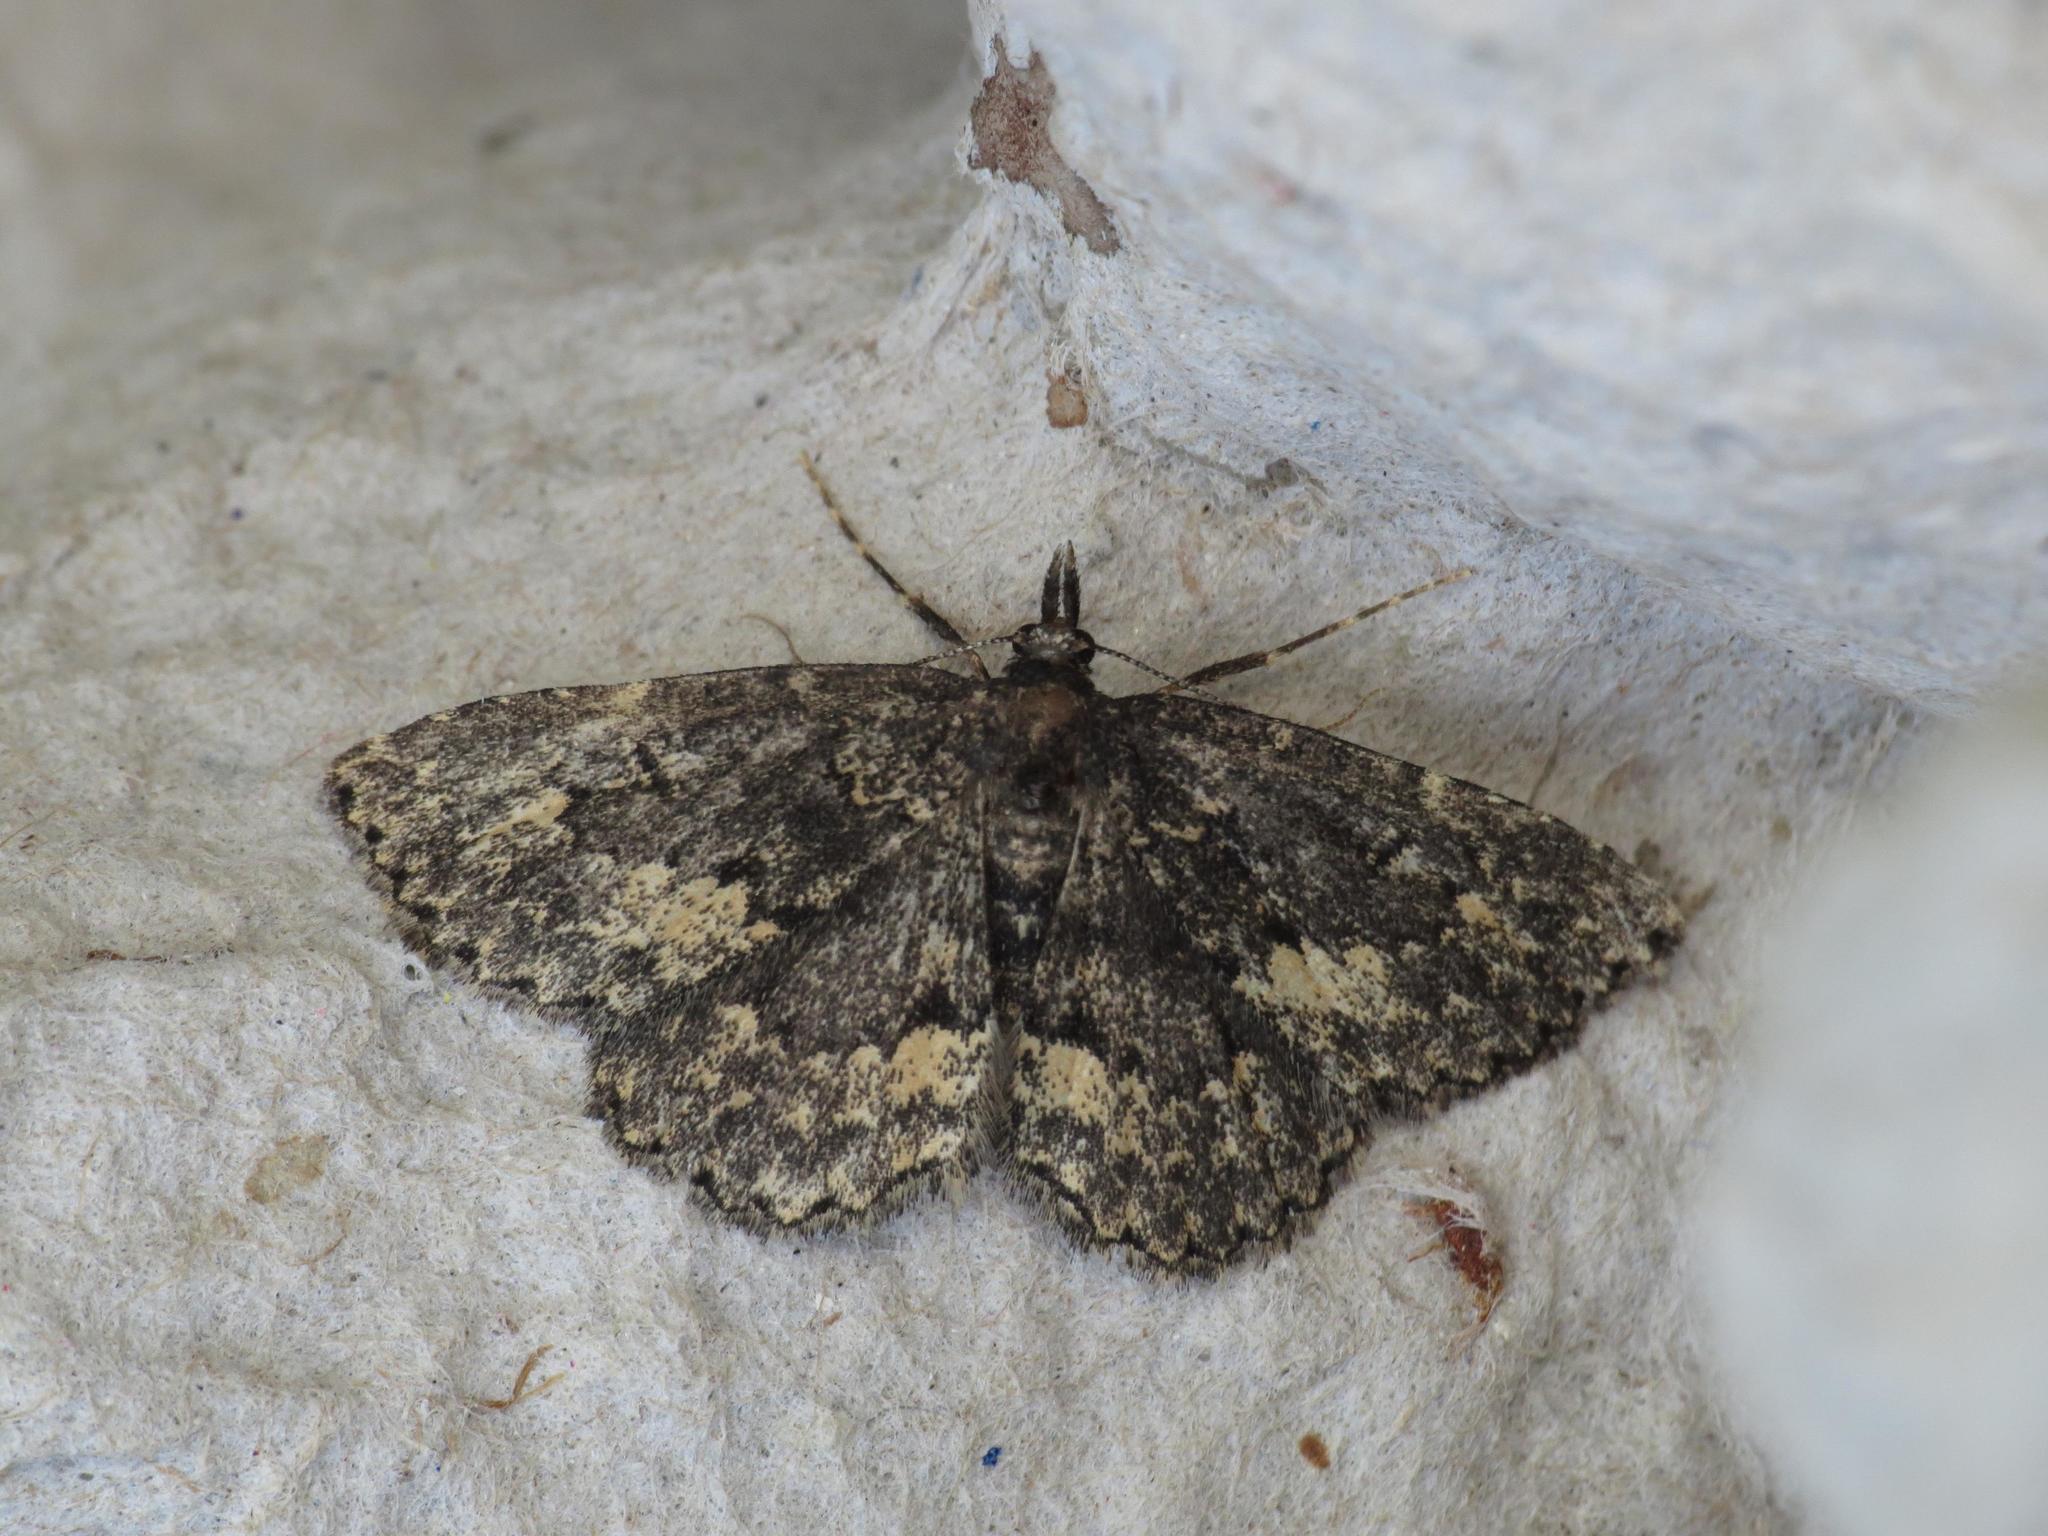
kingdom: Animalia
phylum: Arthropoda
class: Insecta
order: Lepidoptera
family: Erebidae
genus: Parascotia
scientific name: Parascotia fuliginaria
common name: Waved black
